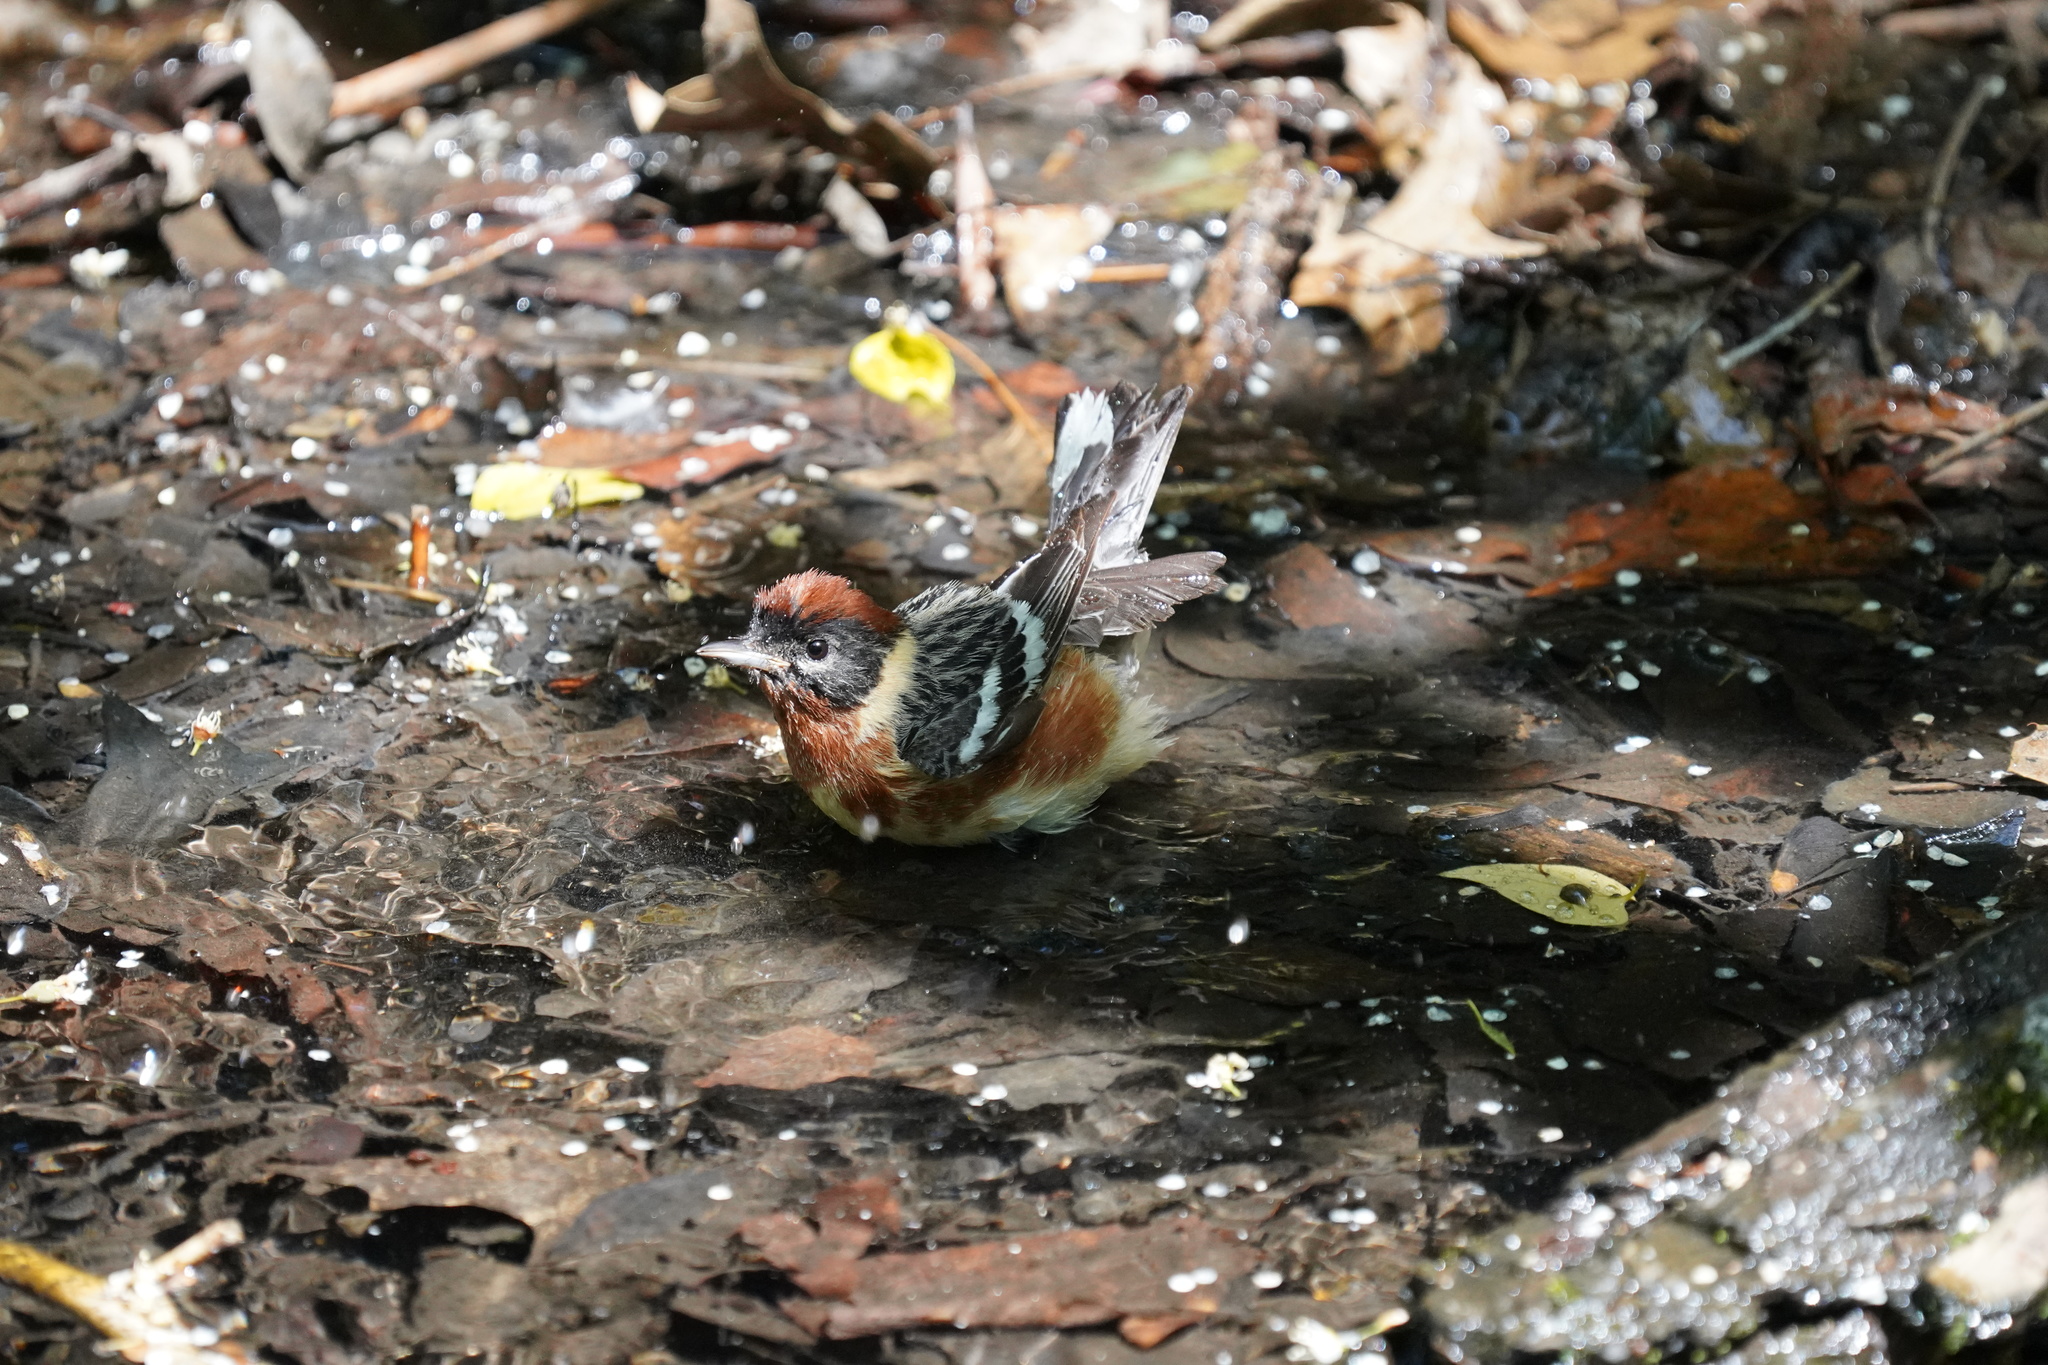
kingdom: Animalia
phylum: Chordata
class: Aves
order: Passeriformes
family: Parulidae
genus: Setophaga
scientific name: Setophaga castanea
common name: Bay-breasted warbler
